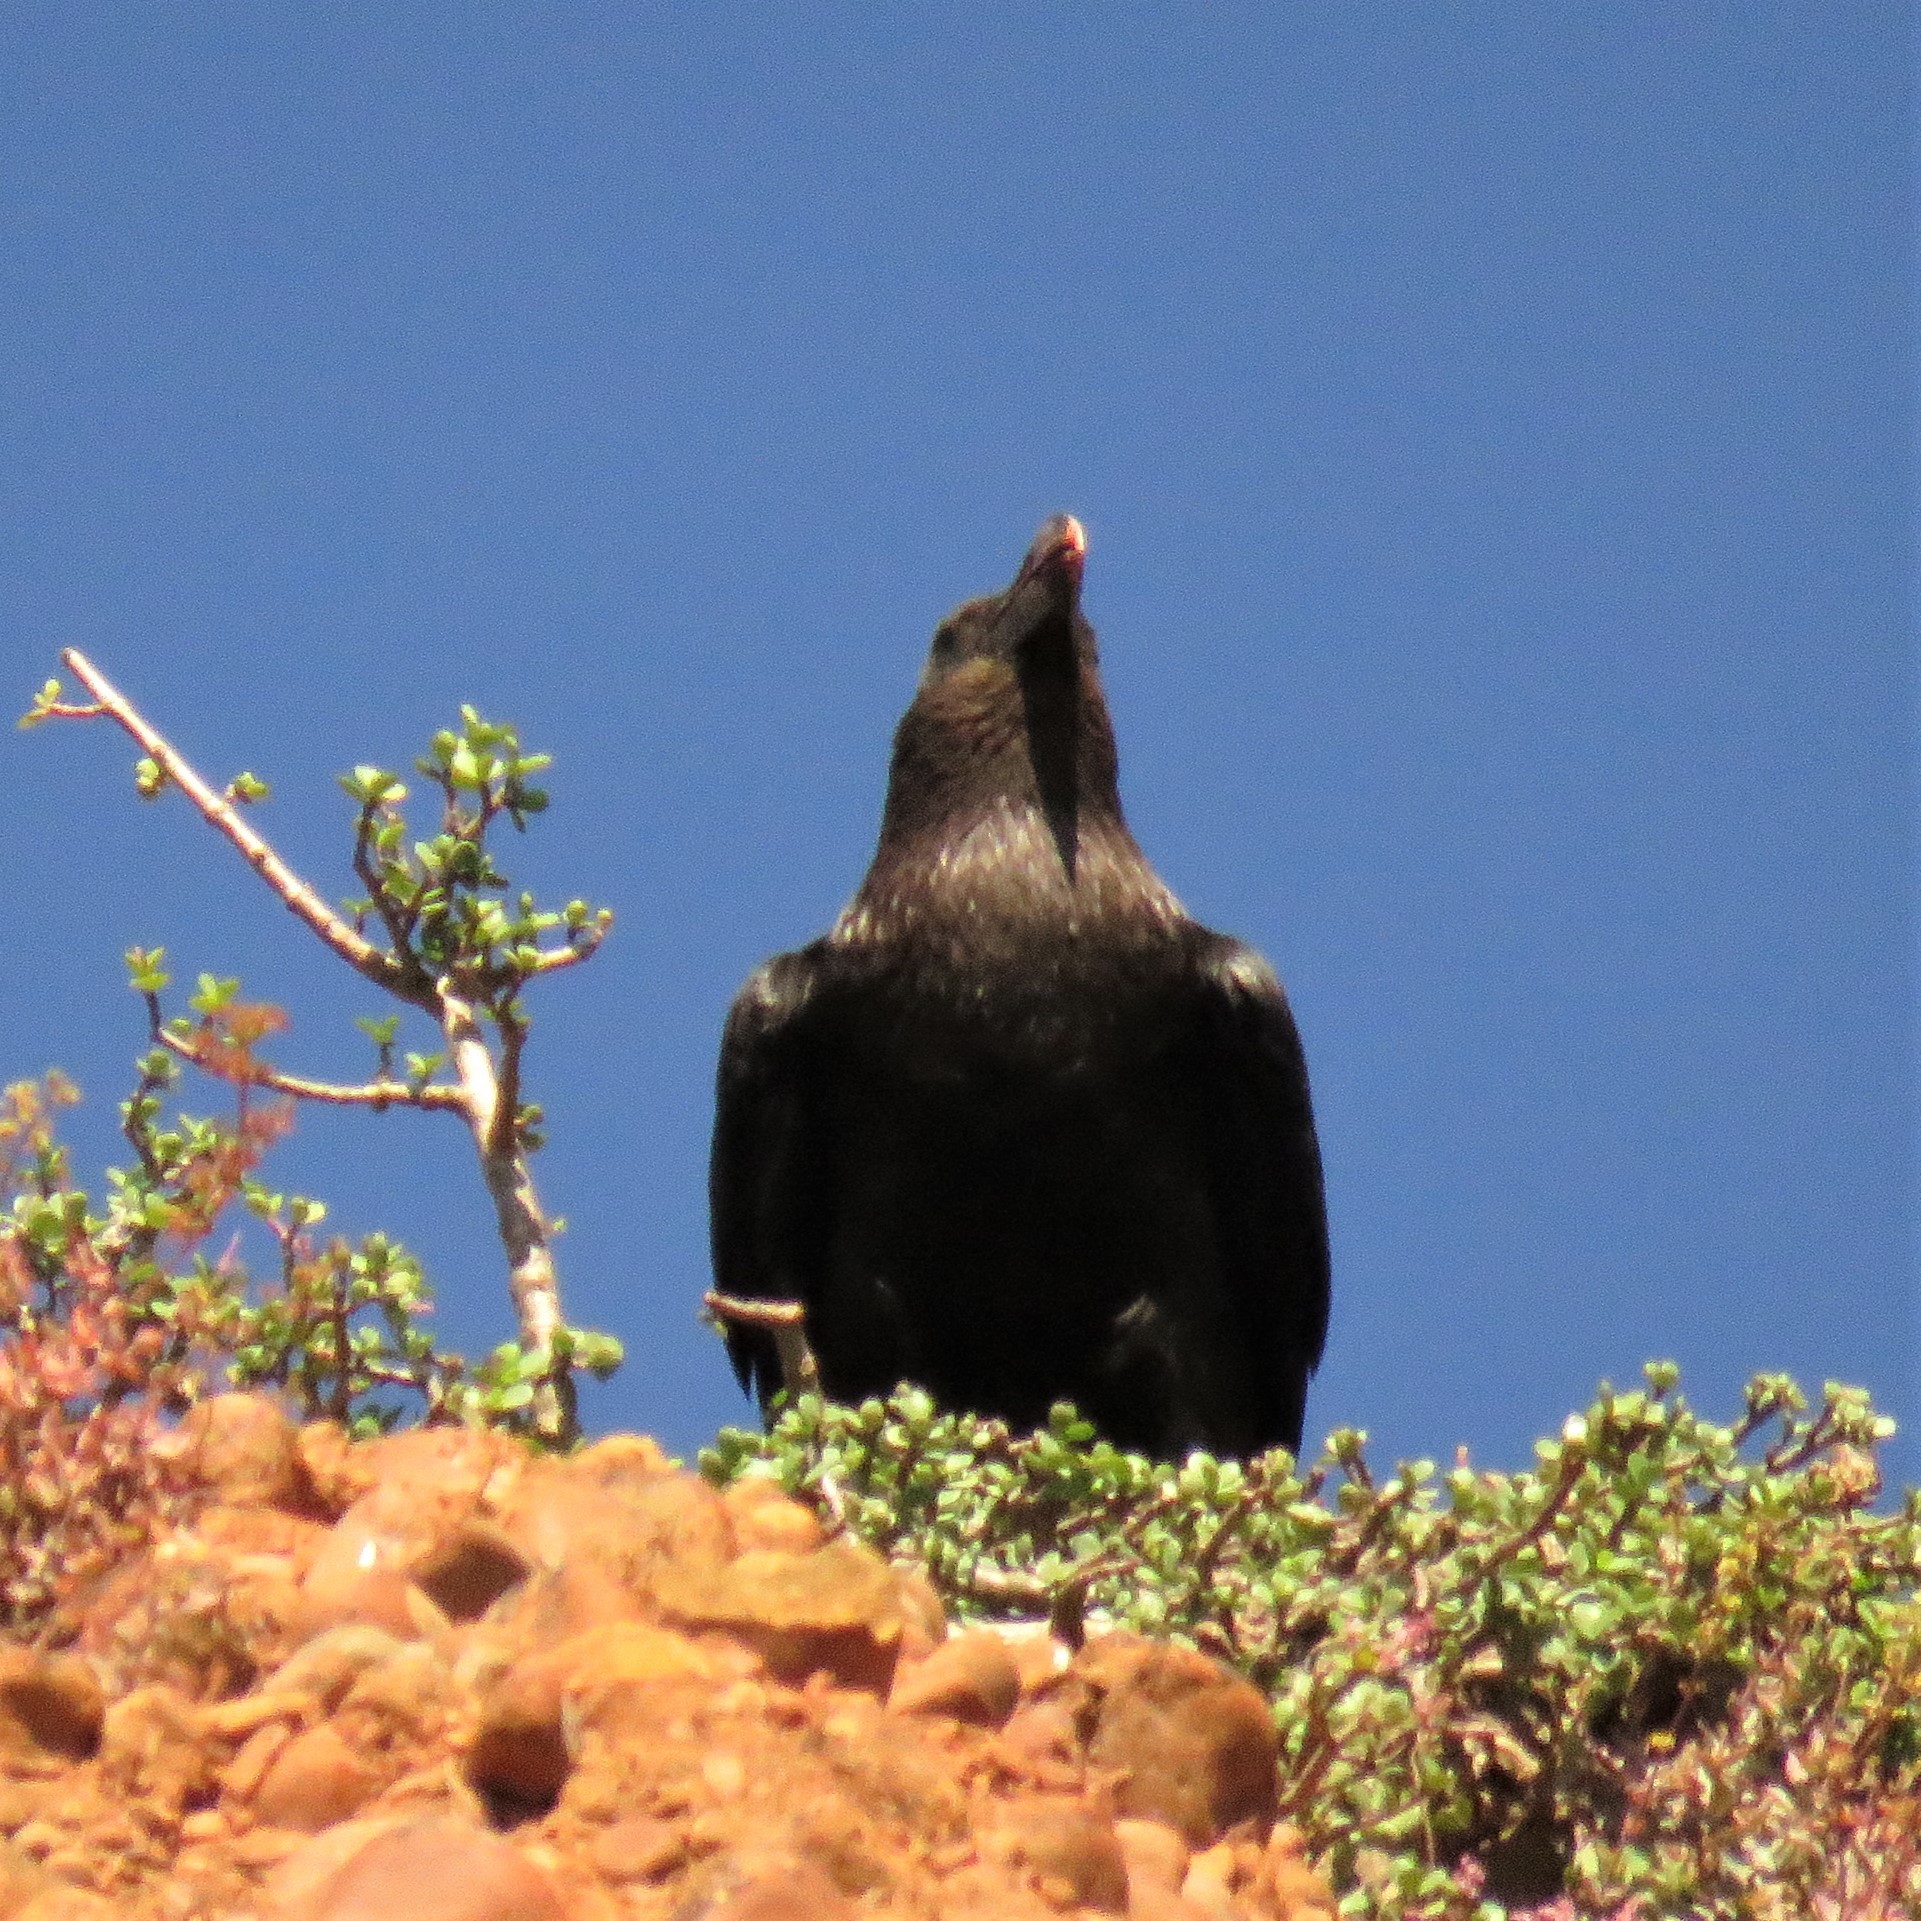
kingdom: Animalia
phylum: Chordata
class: Aves
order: Passeriformes
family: Corvidae
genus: Corvus
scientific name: Corvus albicollis
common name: White-necked raven
